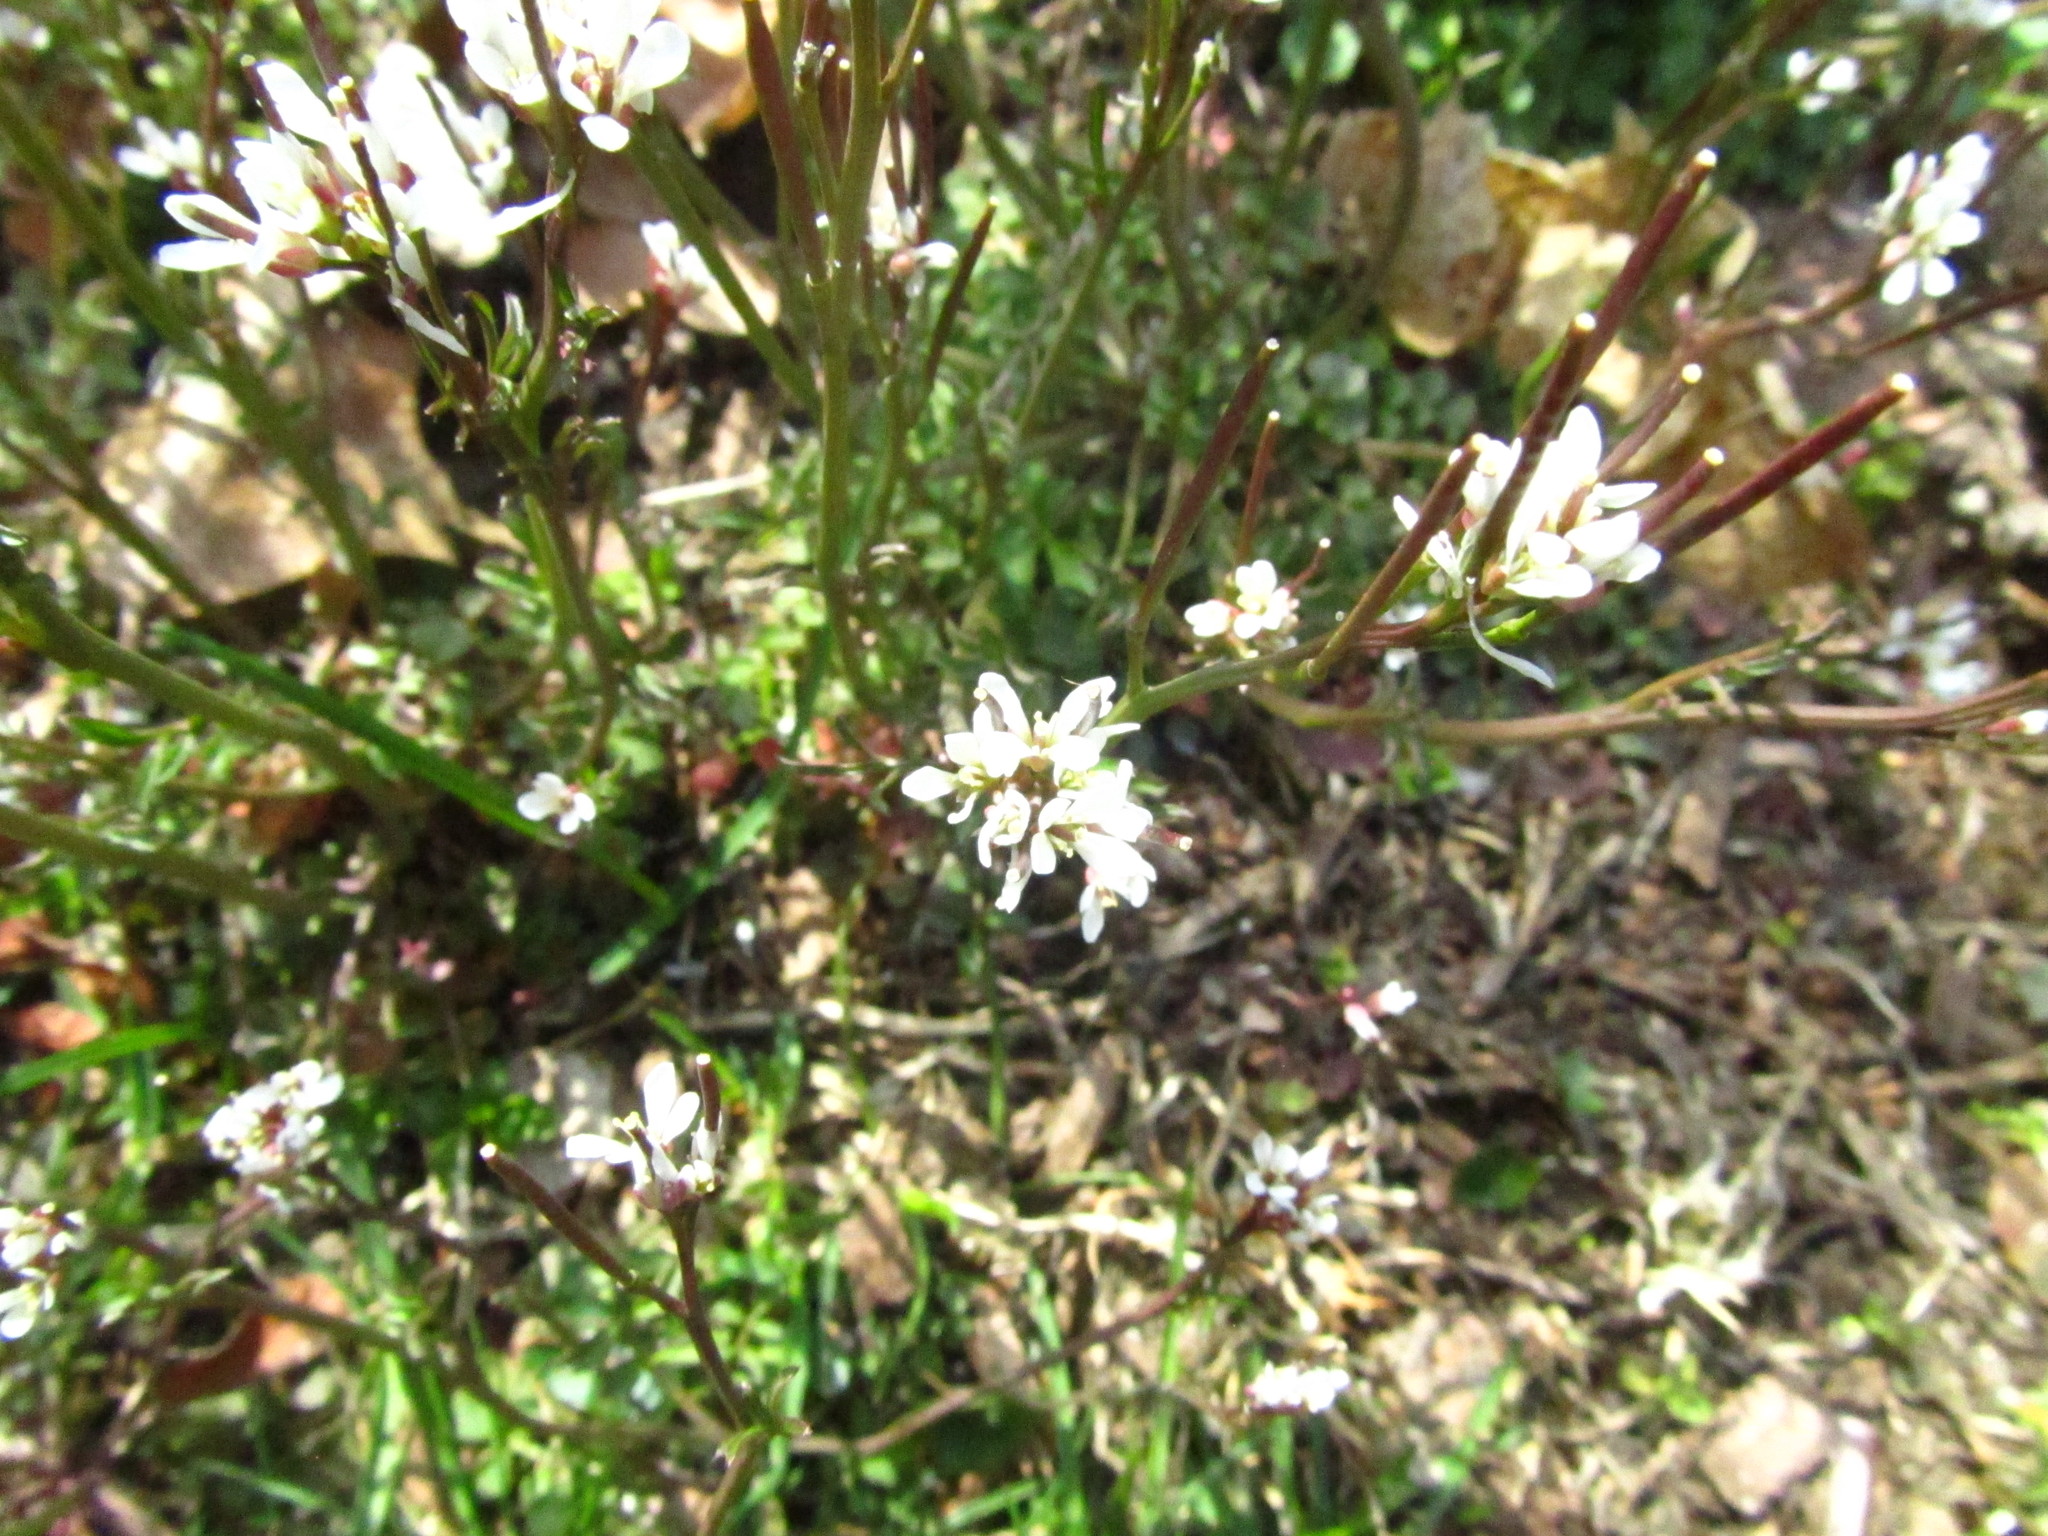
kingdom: Plantae
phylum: Tracheophyta
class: Magnoliopsida
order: Brassicales
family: Brassicaceae
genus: Cardamine
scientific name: Cardamine hirsuta
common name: Hairy bittercress
